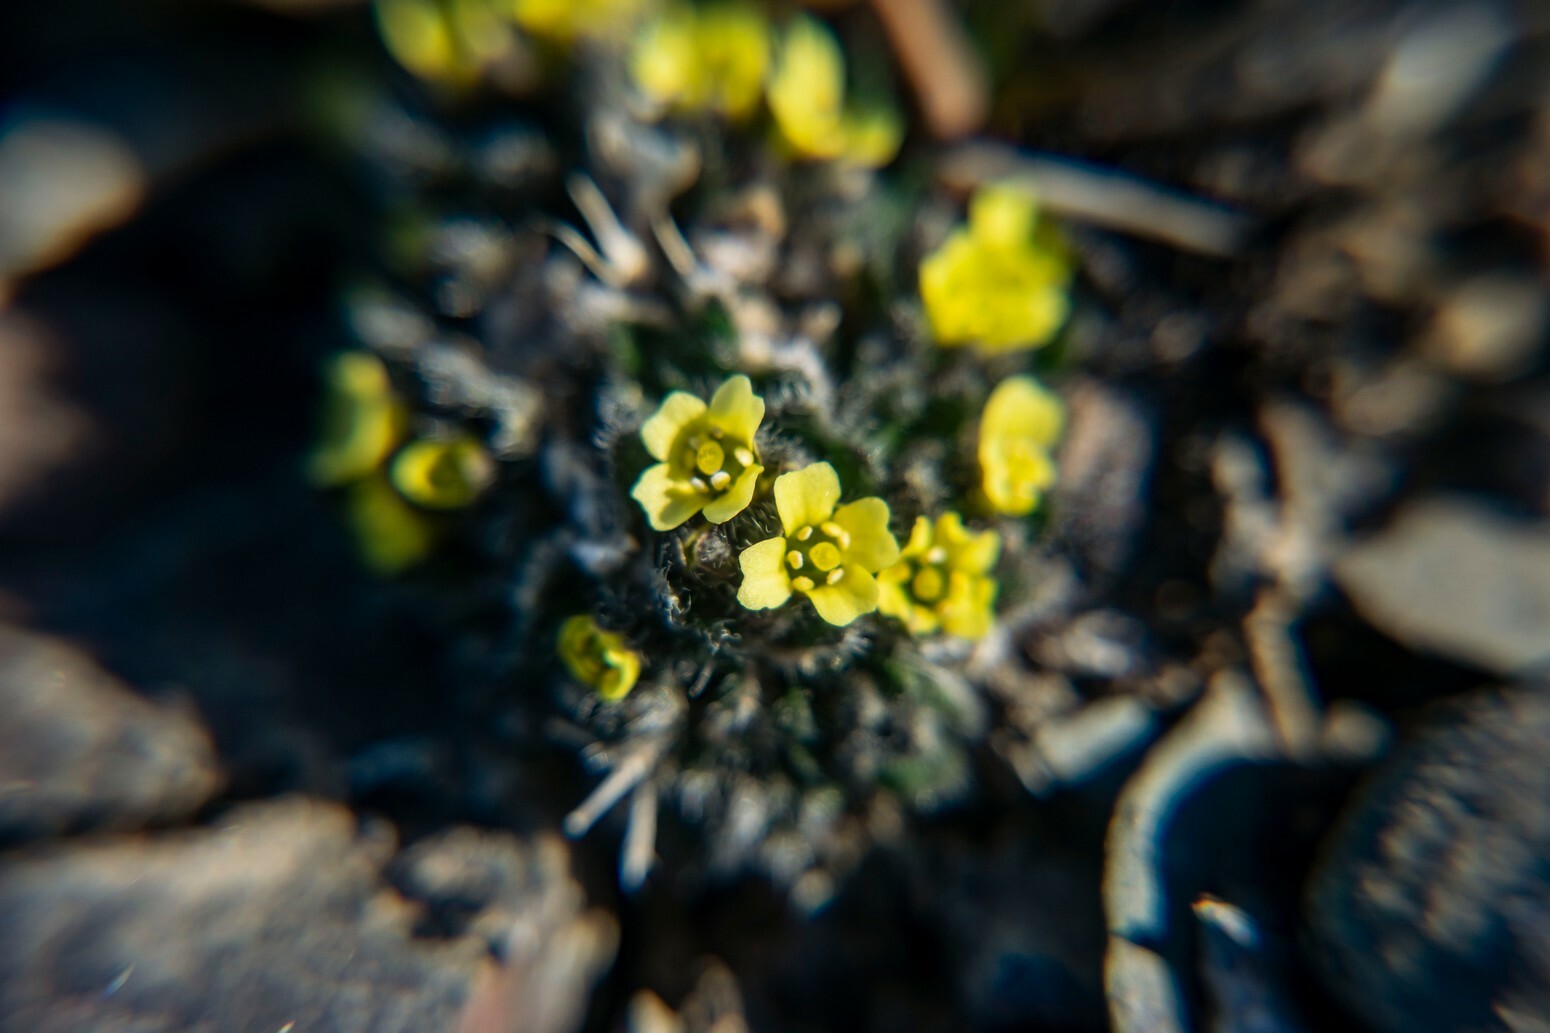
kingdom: Plantae
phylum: Tracheophyta
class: Magnoliopsida
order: Brassicales
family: Brassicaceae
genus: Draba
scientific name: Draba corymbosa
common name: Cushion whitlow-grass
